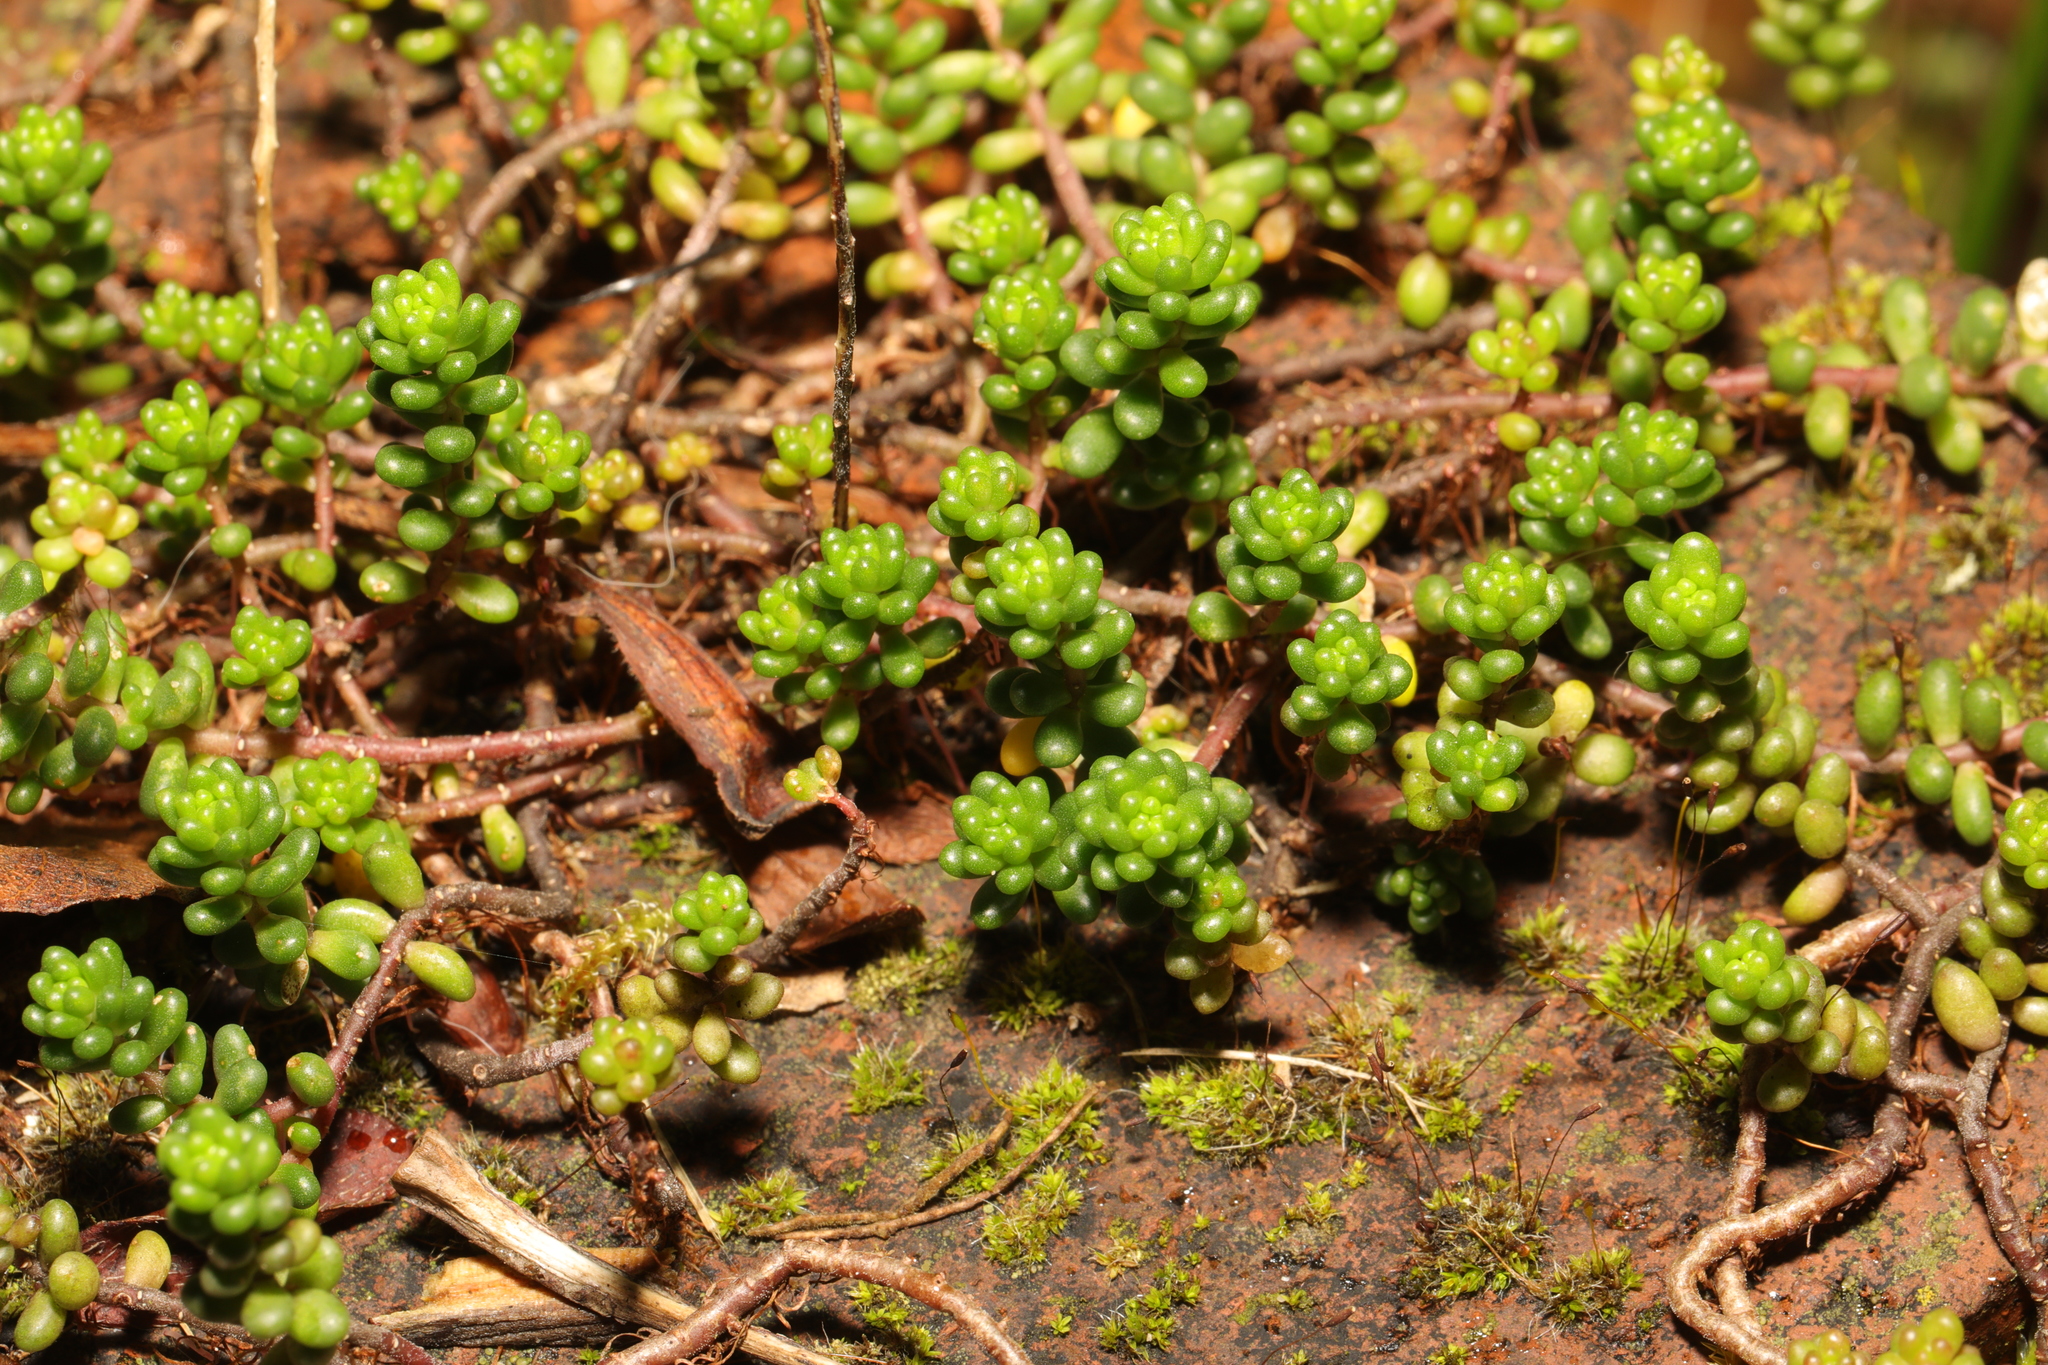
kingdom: Plantae
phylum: Tracheophyta
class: Magnoliopsida
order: Saxifragales
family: Crassulaceae
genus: Sedum
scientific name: Sedum album
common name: White stonecrop
